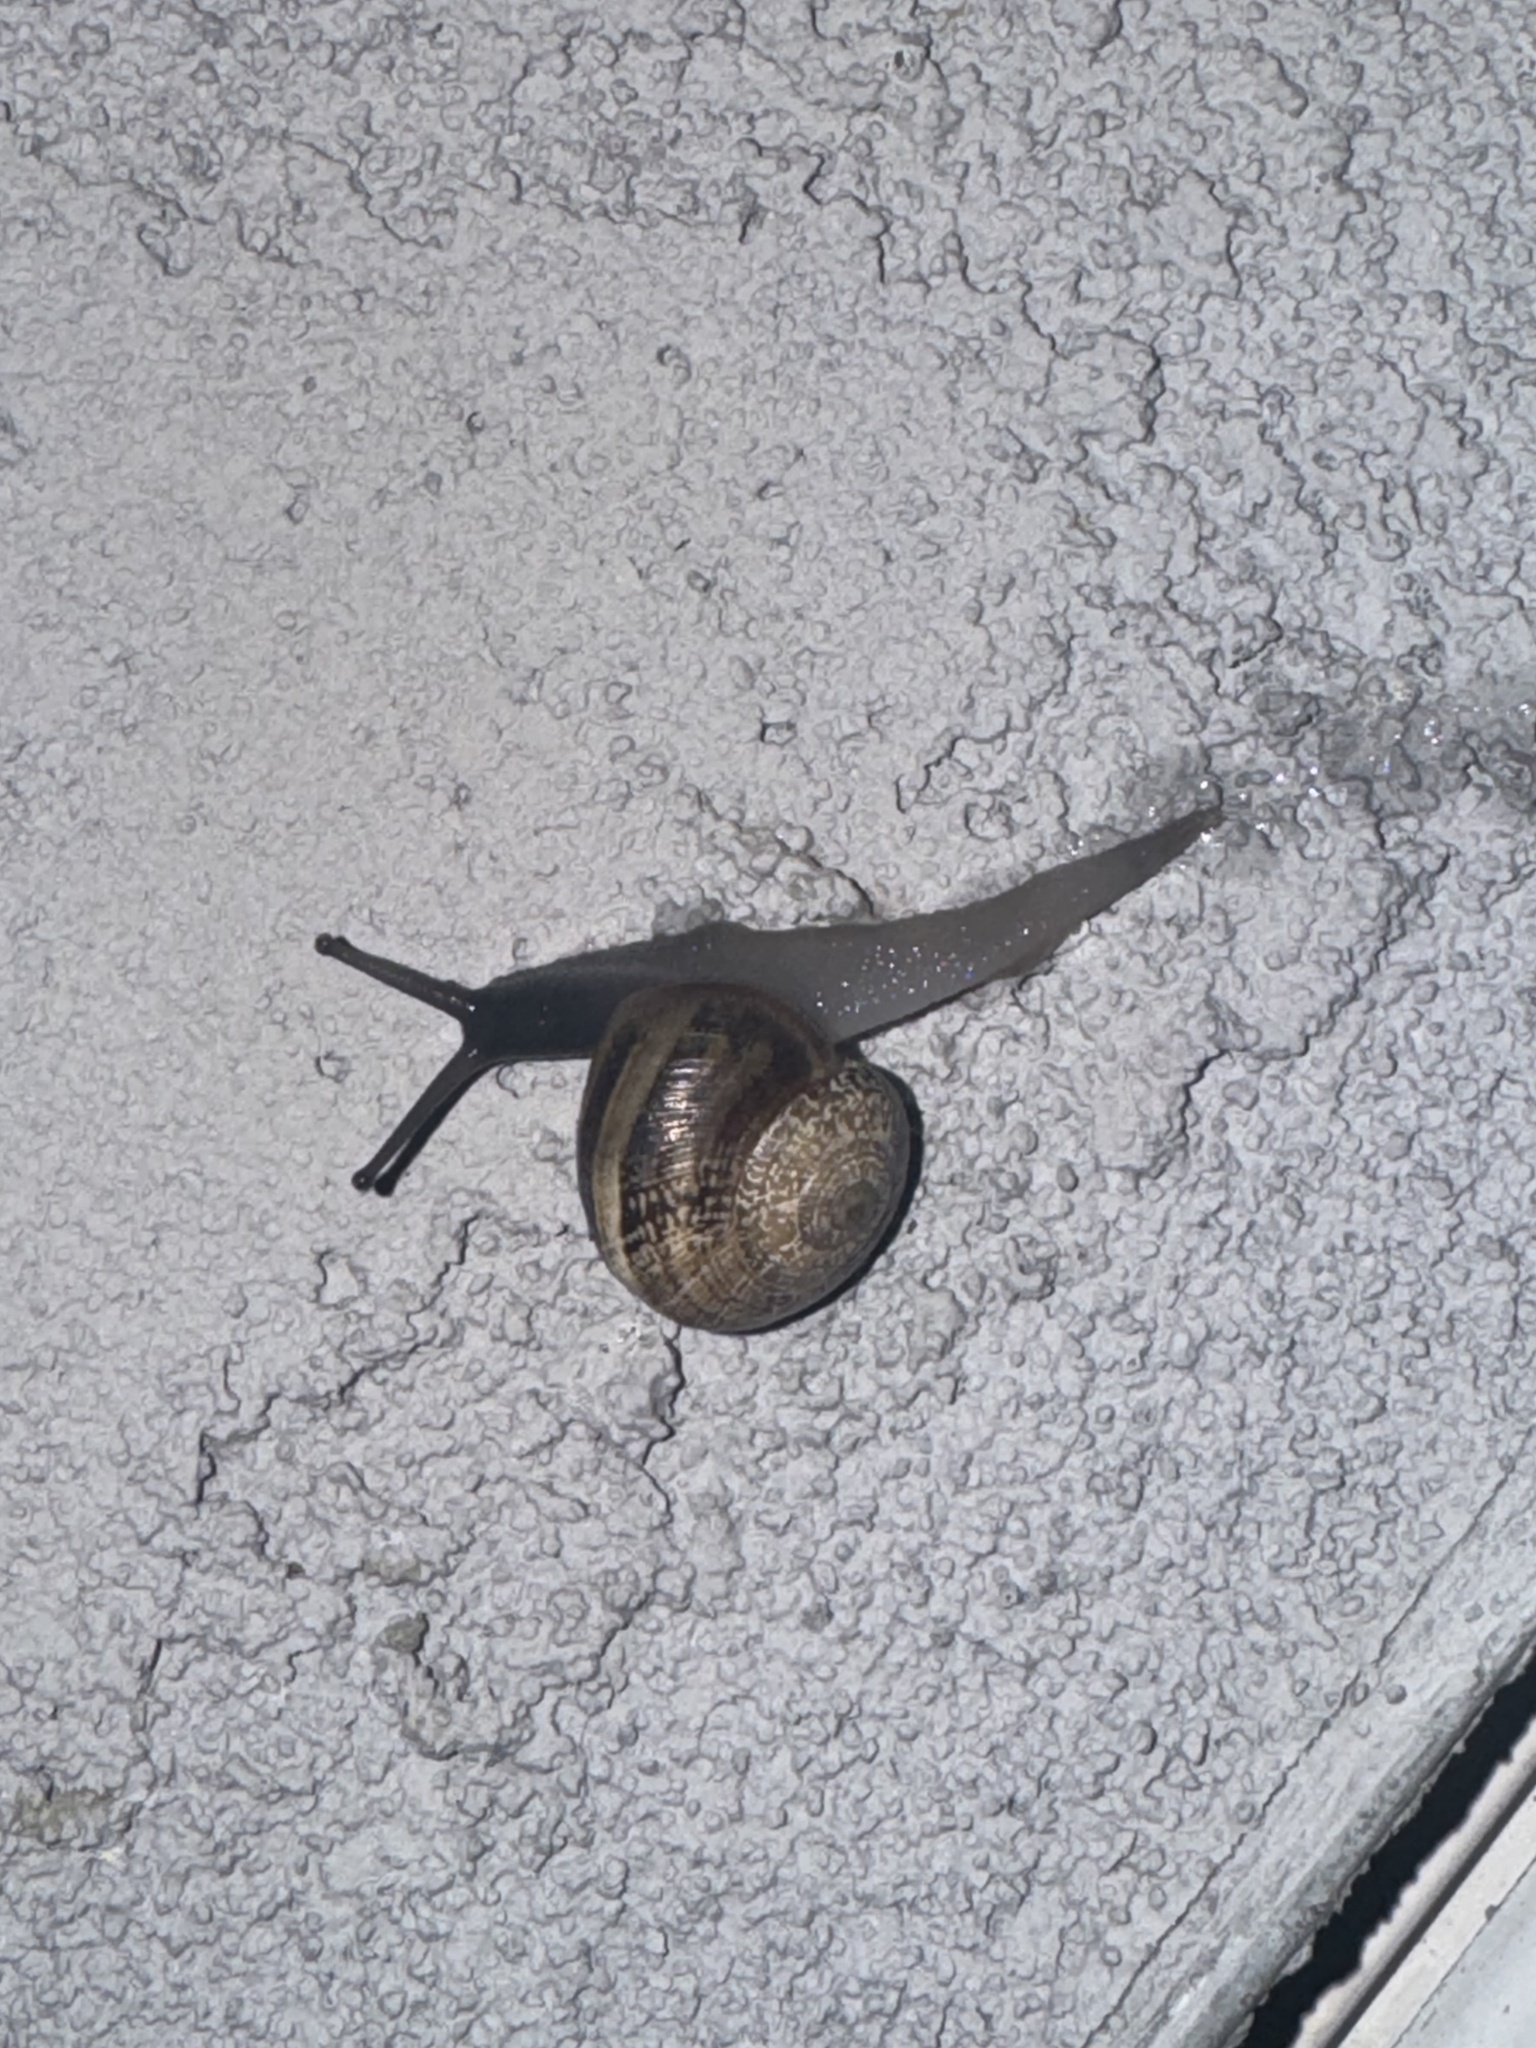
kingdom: Animalia
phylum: Mollusca
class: Gastropoda
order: Stylommatophora
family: Helicidae
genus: Otala
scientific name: Otala lactea
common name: Milk snail
